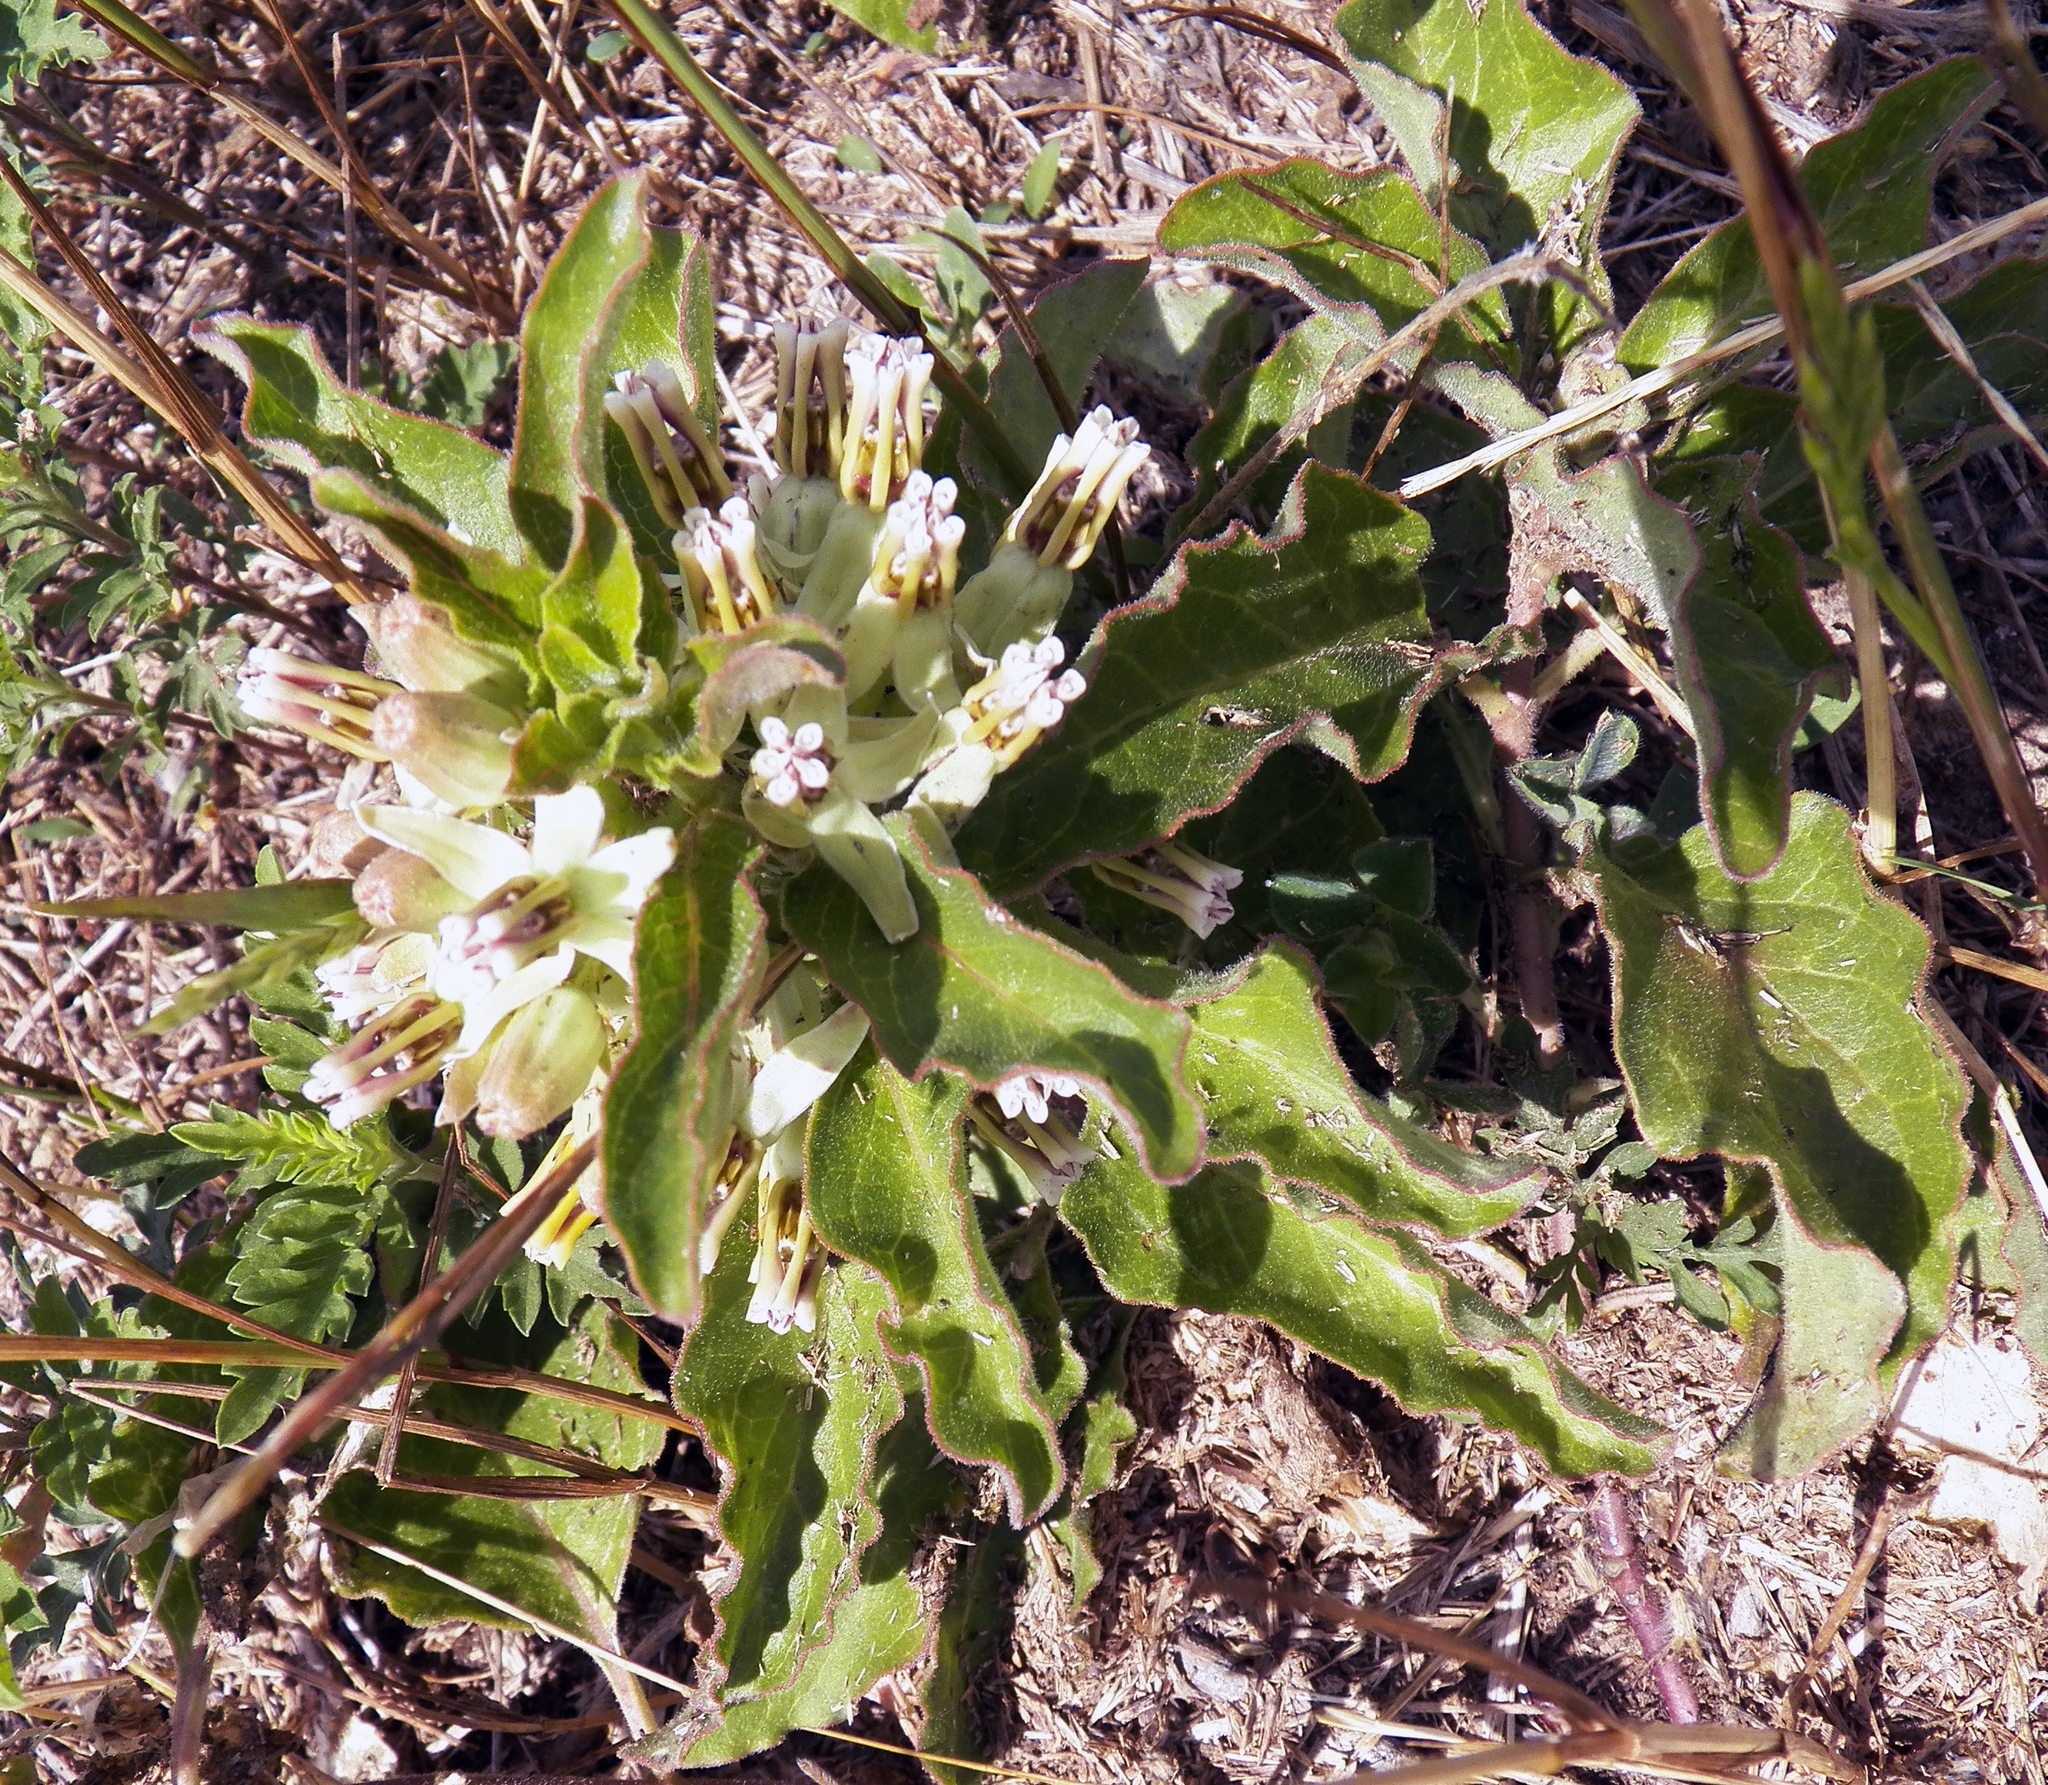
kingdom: Plantae
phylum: Tracheophyta
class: Magnoliopsida
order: Gentianales
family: Apocynaceae
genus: Asclepias
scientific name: Asclepias oenotheroides
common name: Zizotes milkweed
